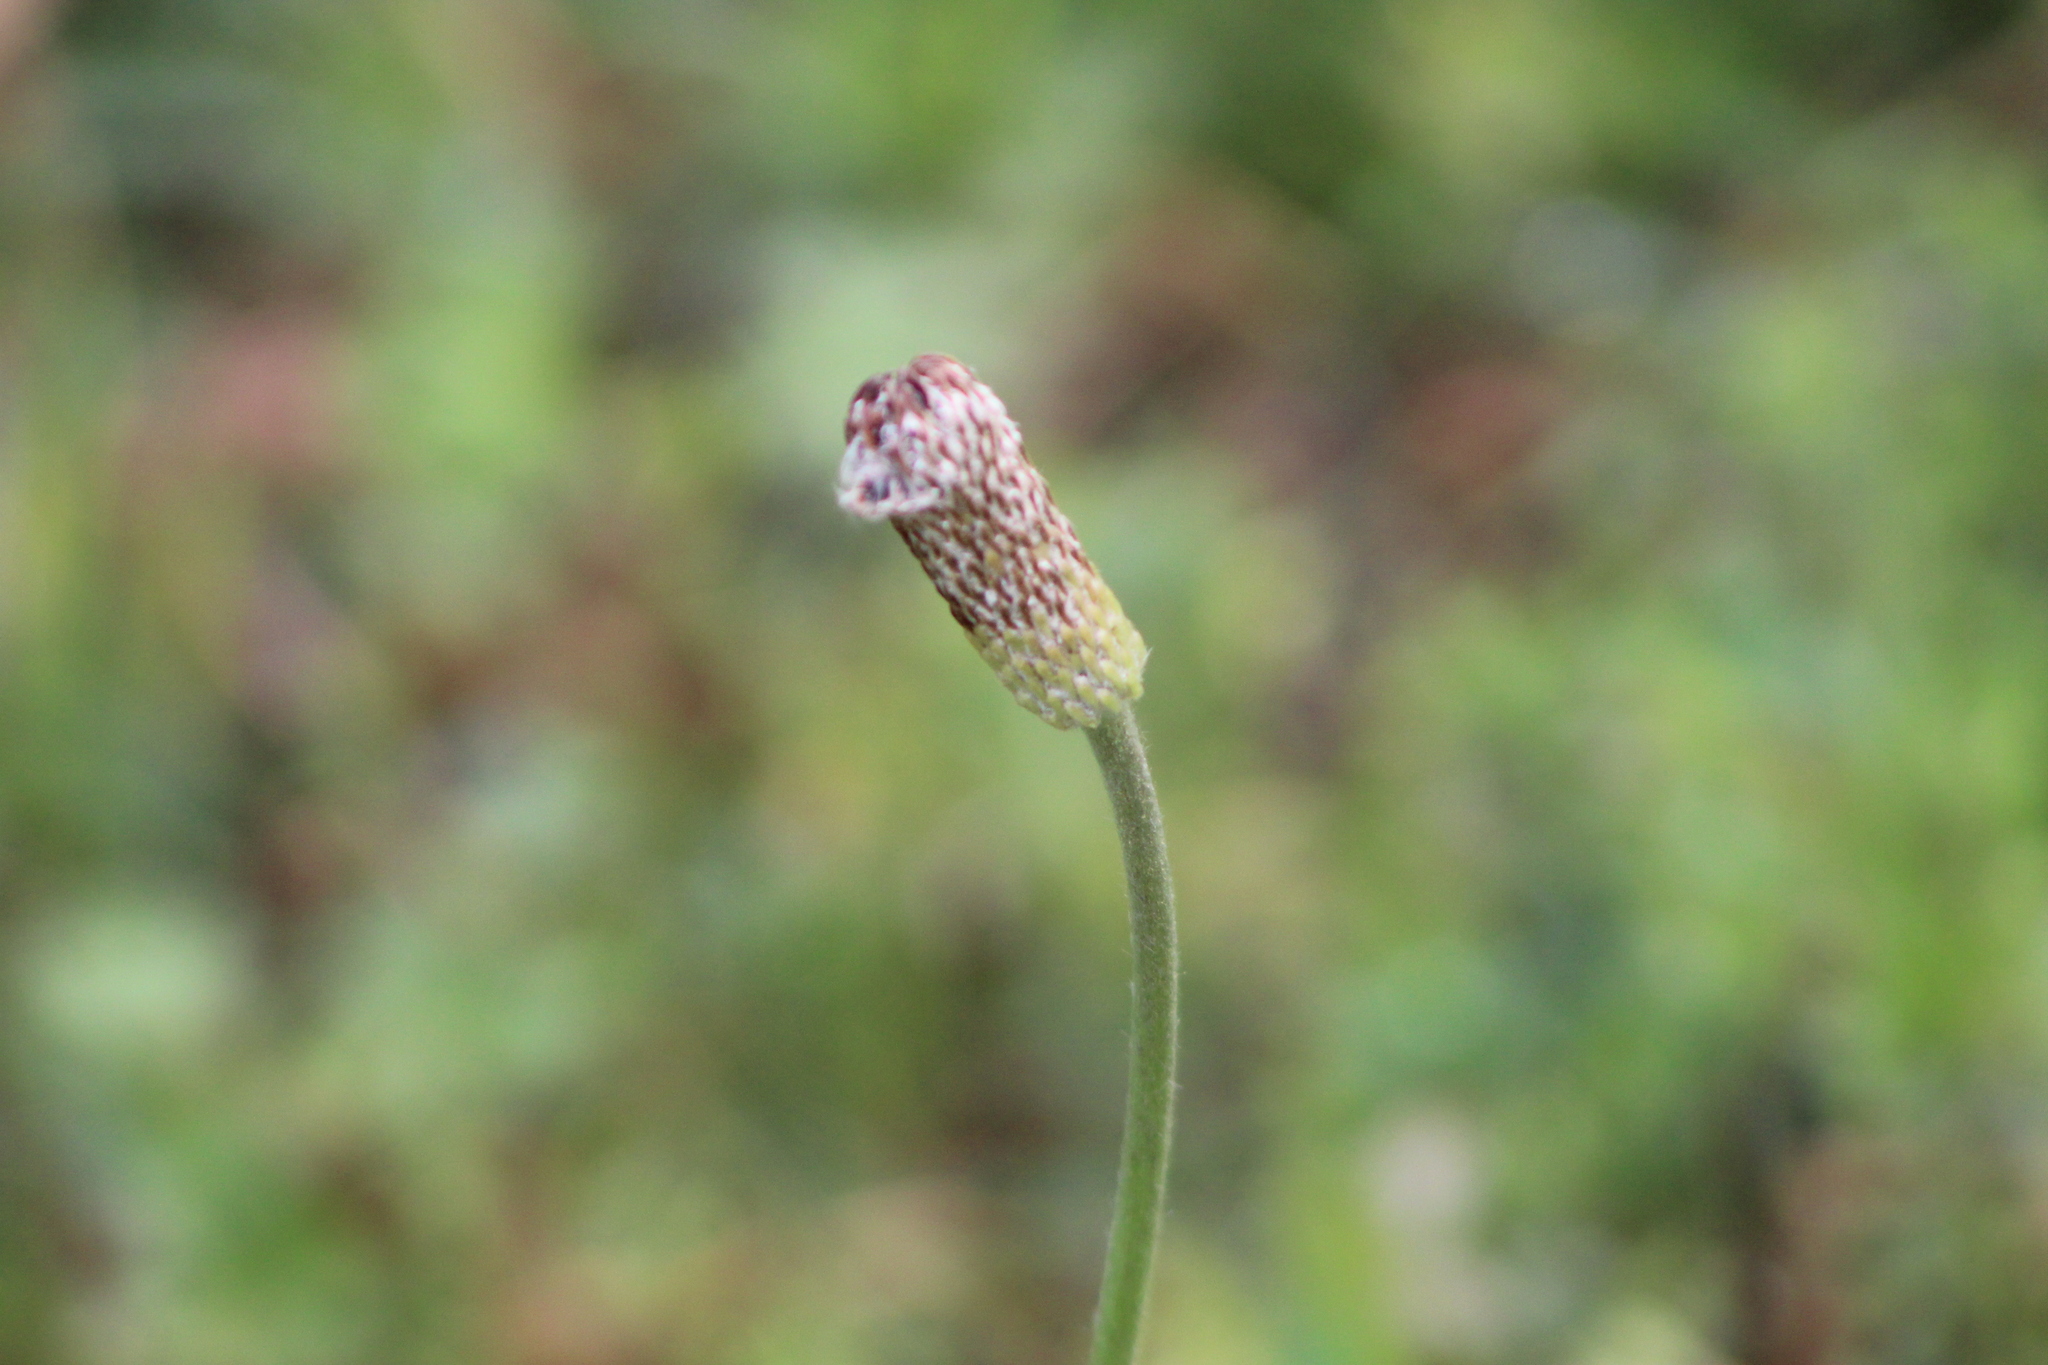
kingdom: Plantae
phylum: Tracheophyta
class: Magnoliopsida
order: Ranunculales
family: Ranunculaceae
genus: Anemone
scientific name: Anemone berlandieri
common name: Ten-petal anemone
